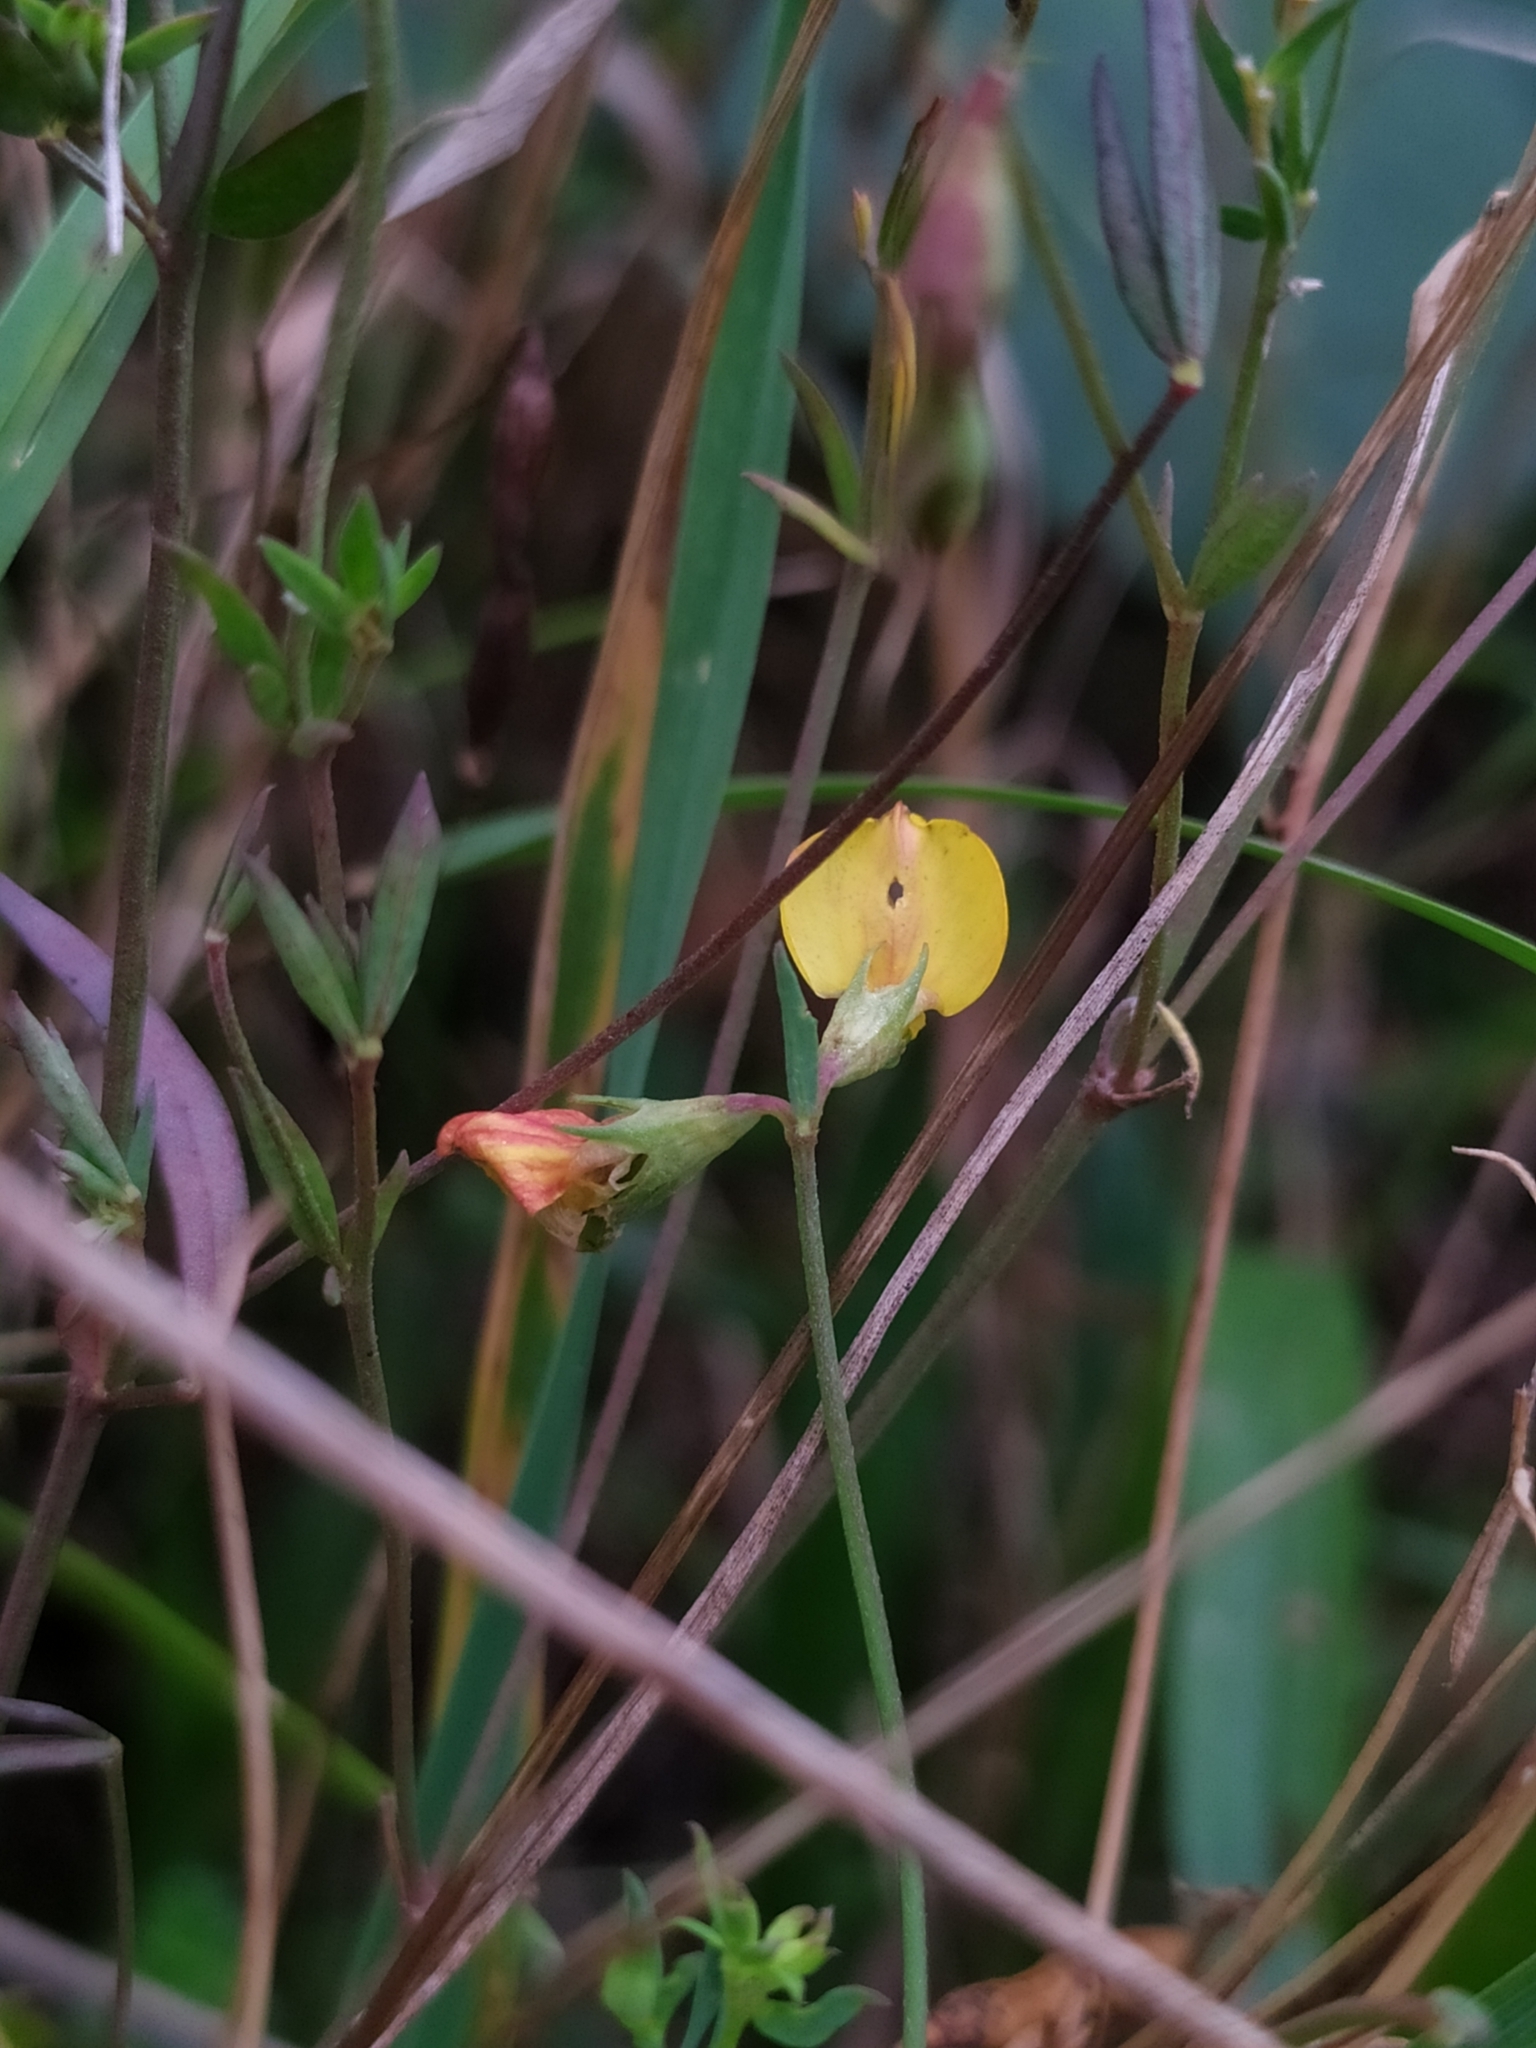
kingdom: Plantae
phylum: Tracheophyta
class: Magnoliopsida
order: Fabales
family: Fabaceae
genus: Lotus
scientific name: Lotus tenuis
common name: Narrow-leaved bird's-foot-trefoil
